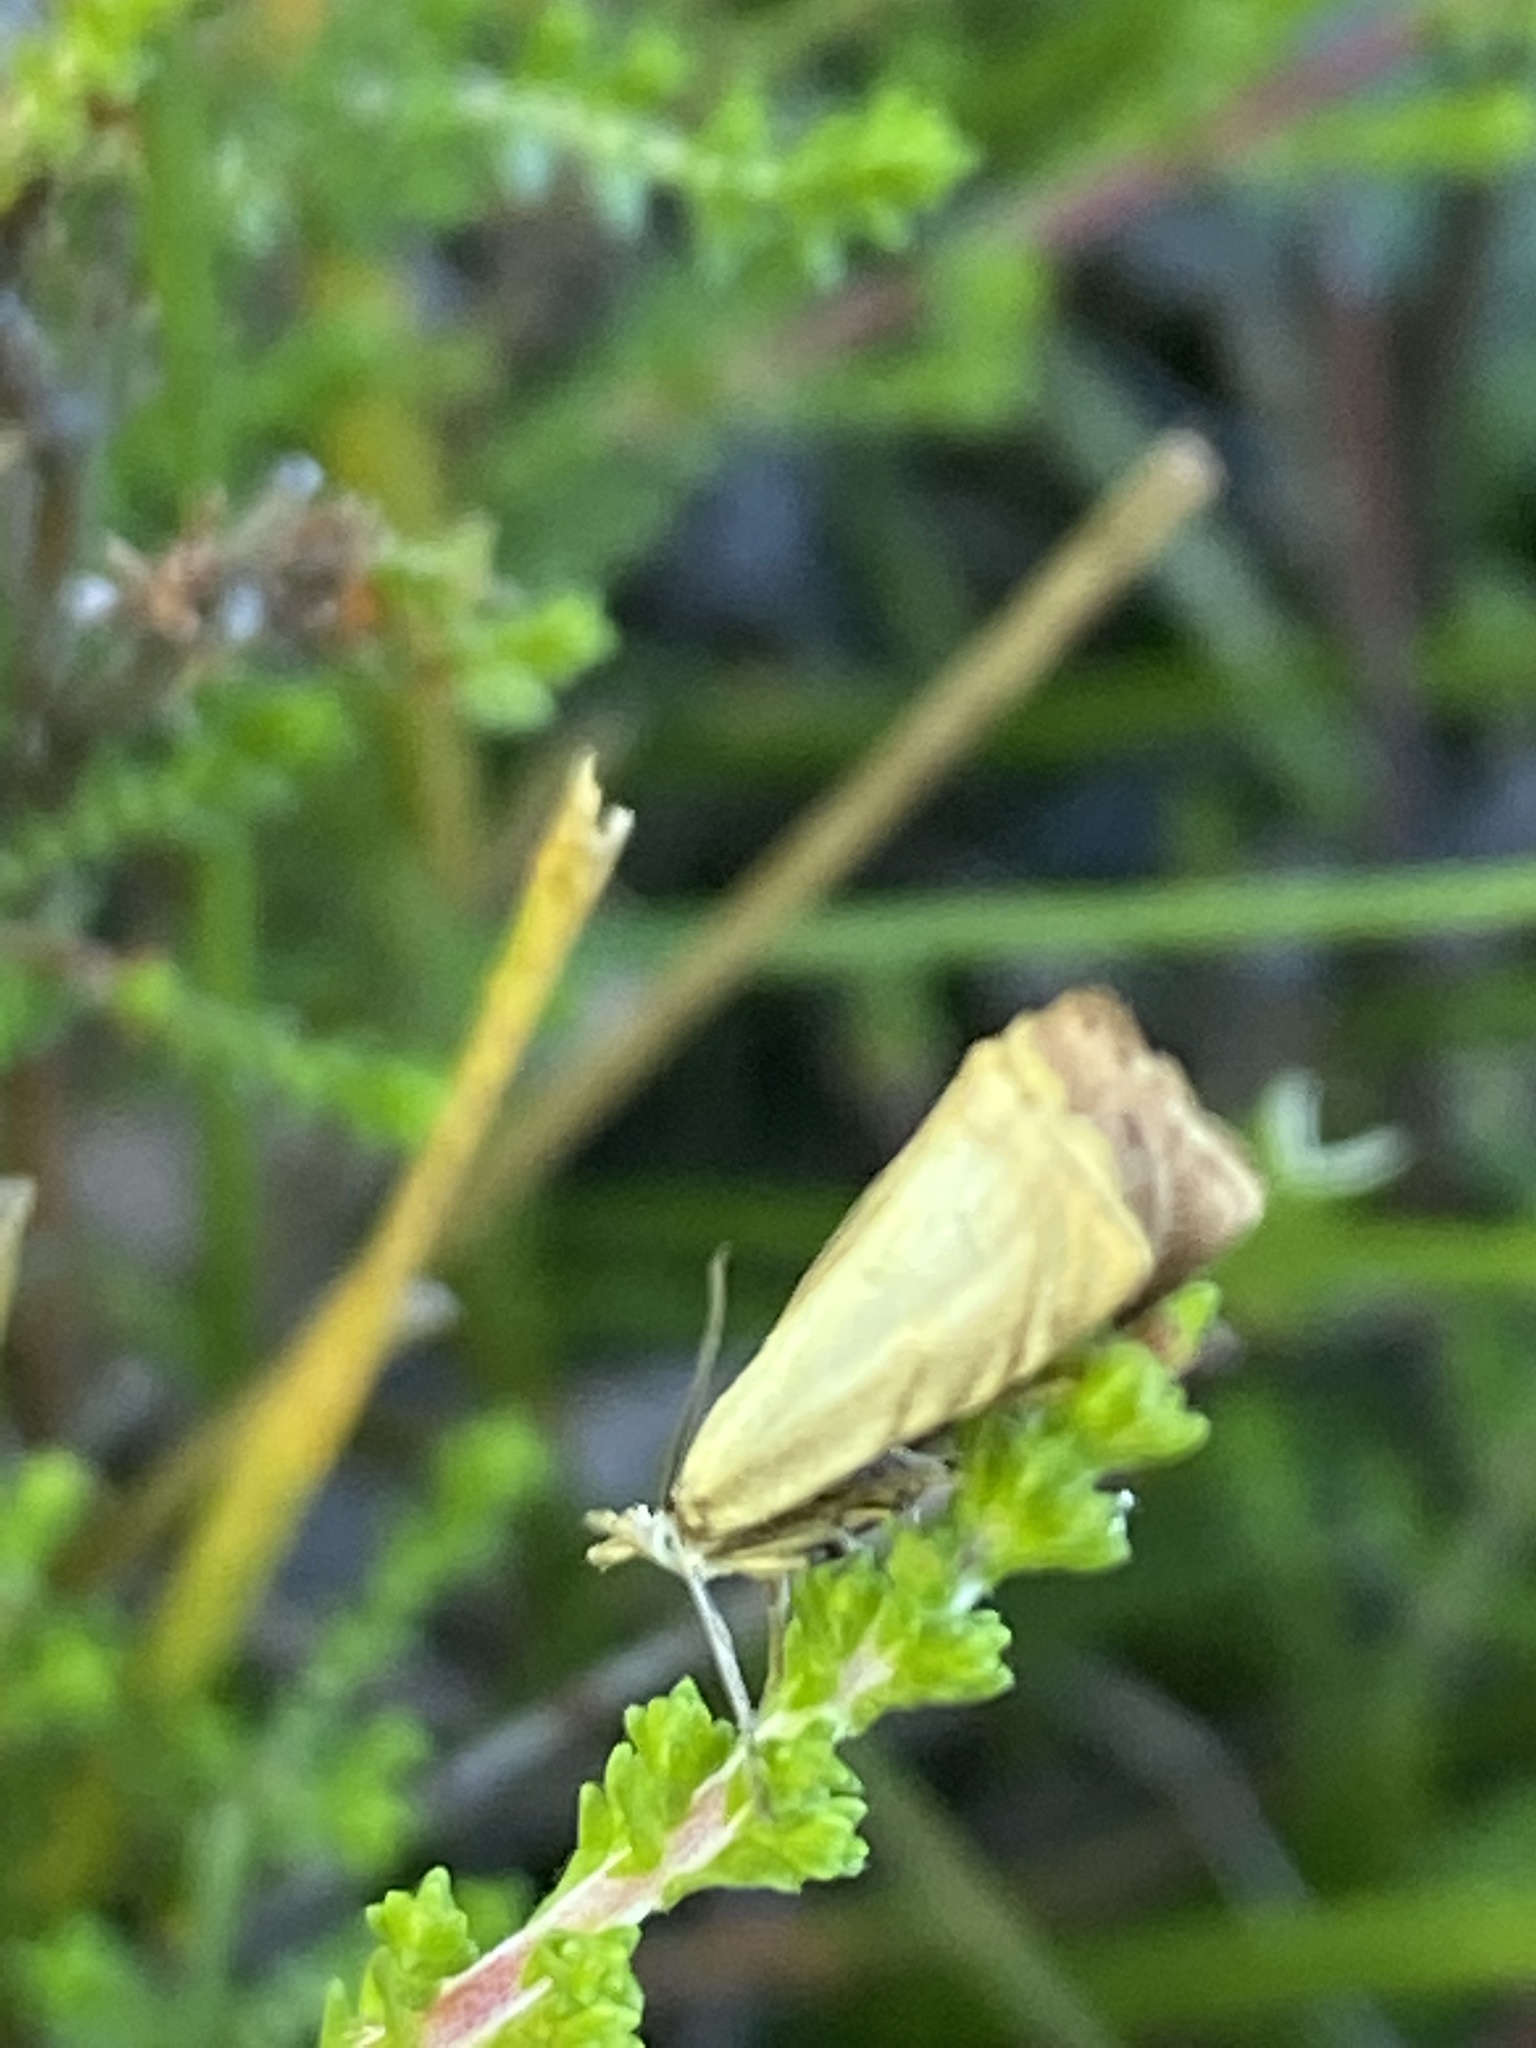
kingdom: Animalia
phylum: Arthropoda
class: Insecta
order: Lepidoptera
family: Crambidae
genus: Chrysoteuchia
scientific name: Chrysoteuchia culmella
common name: Garden grass-veneer
